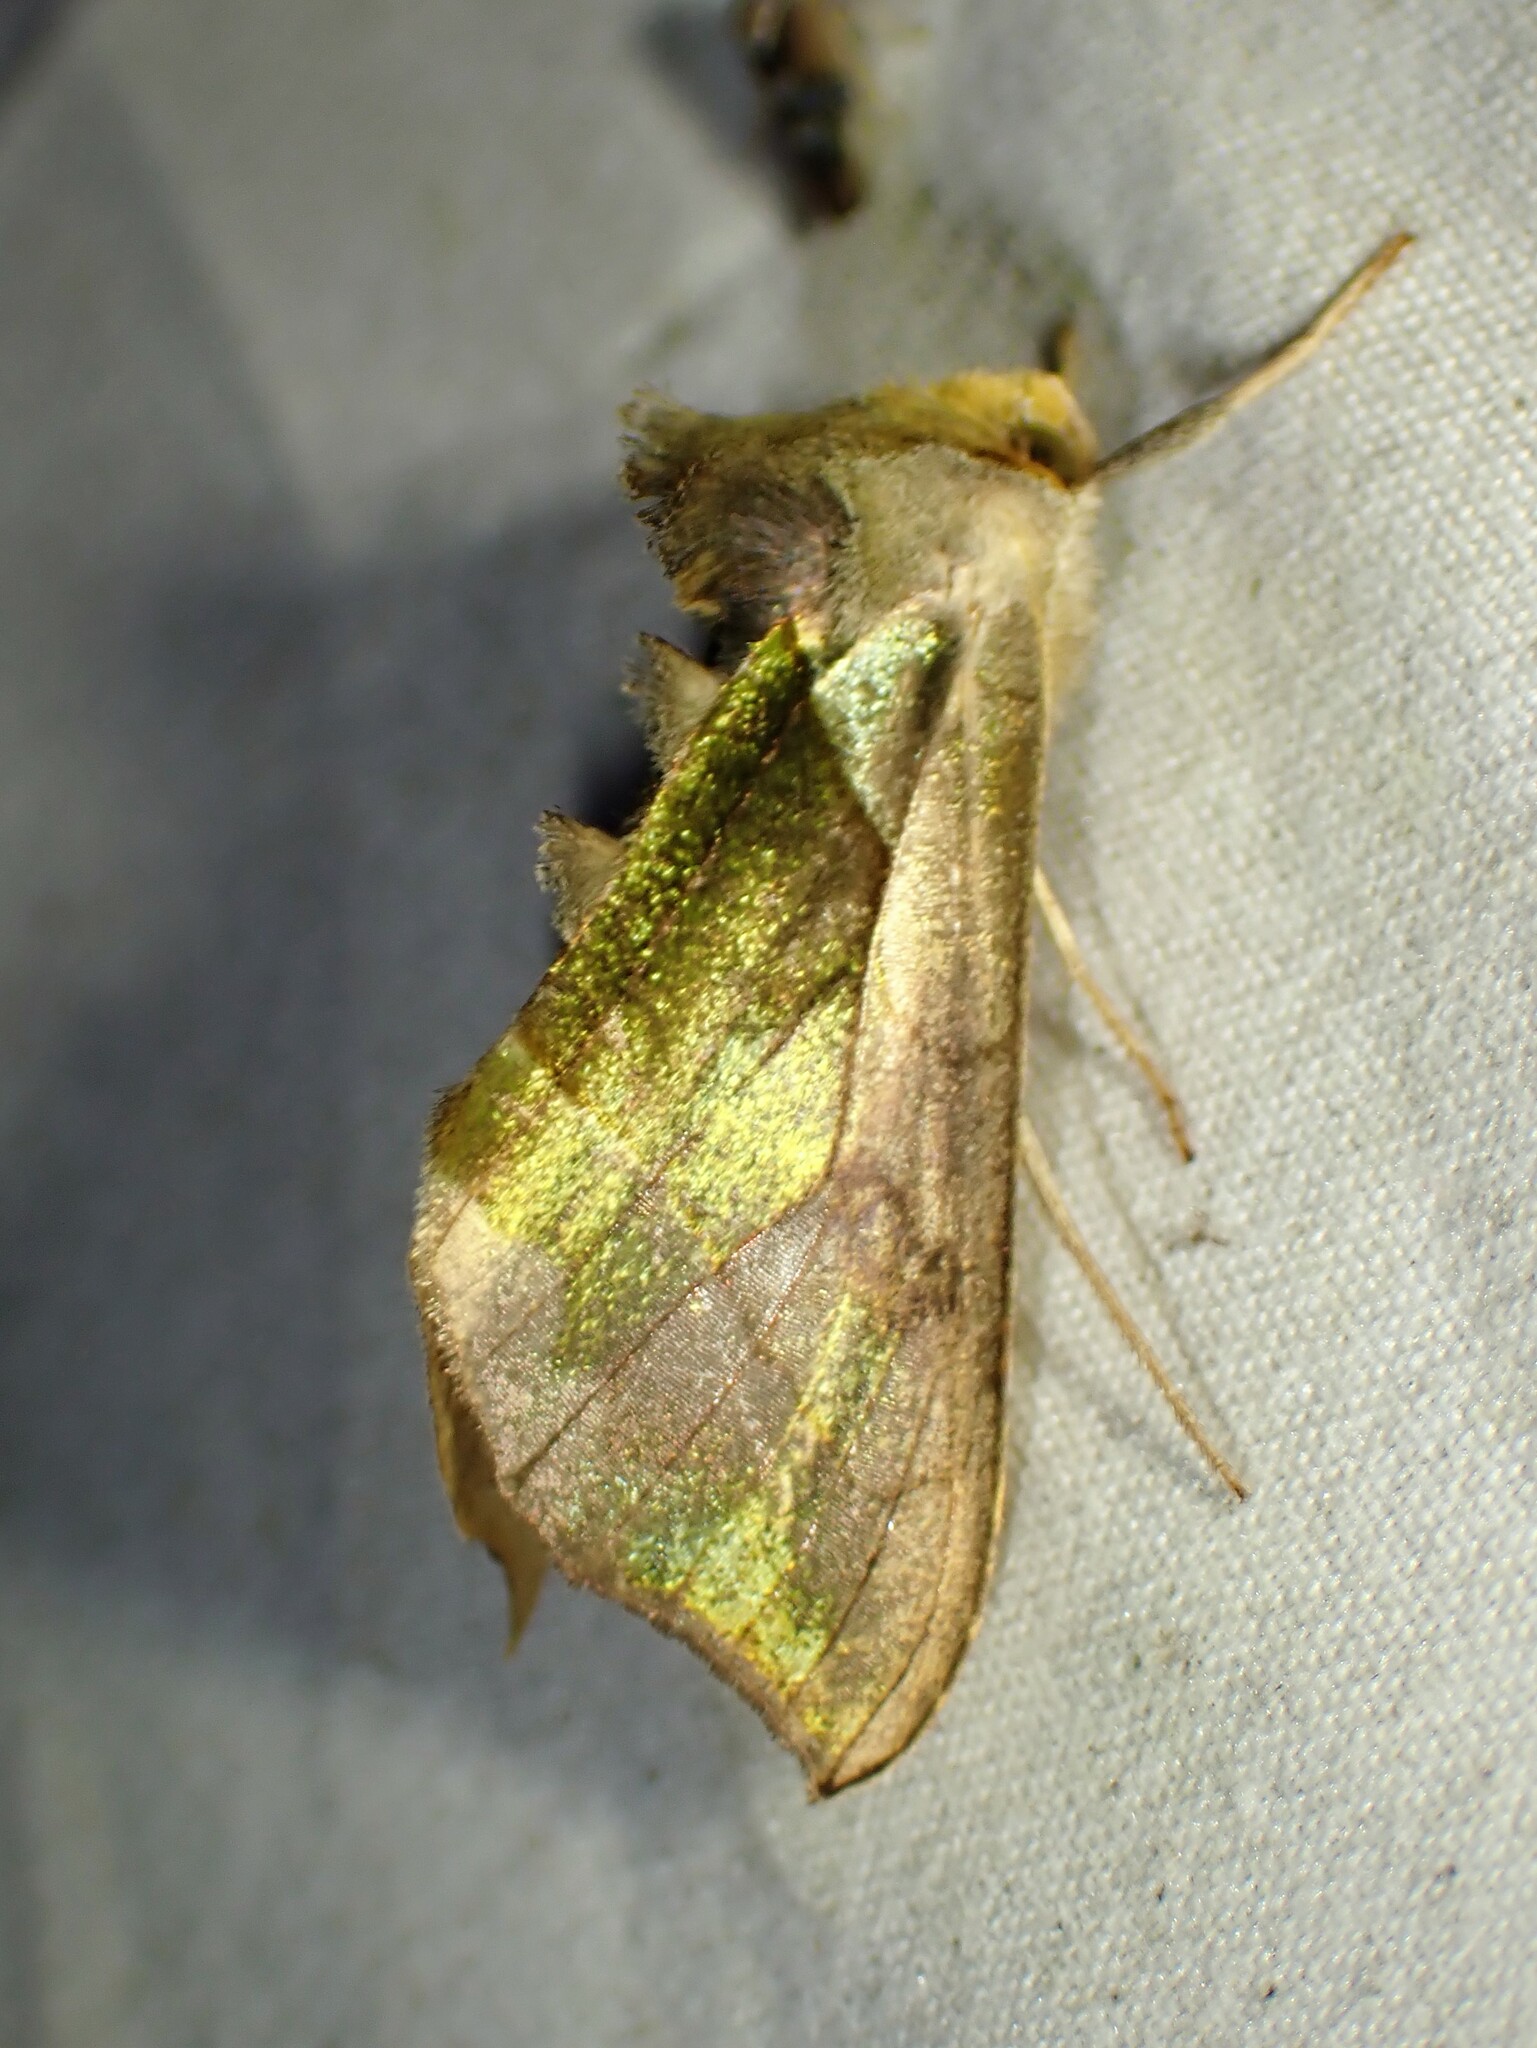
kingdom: Animalia
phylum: Arthropoda
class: Insecta
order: Lepidoptera
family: Noctuidae
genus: Diachrysia
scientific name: Diachrysia balluca
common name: Green-patched looper moth
